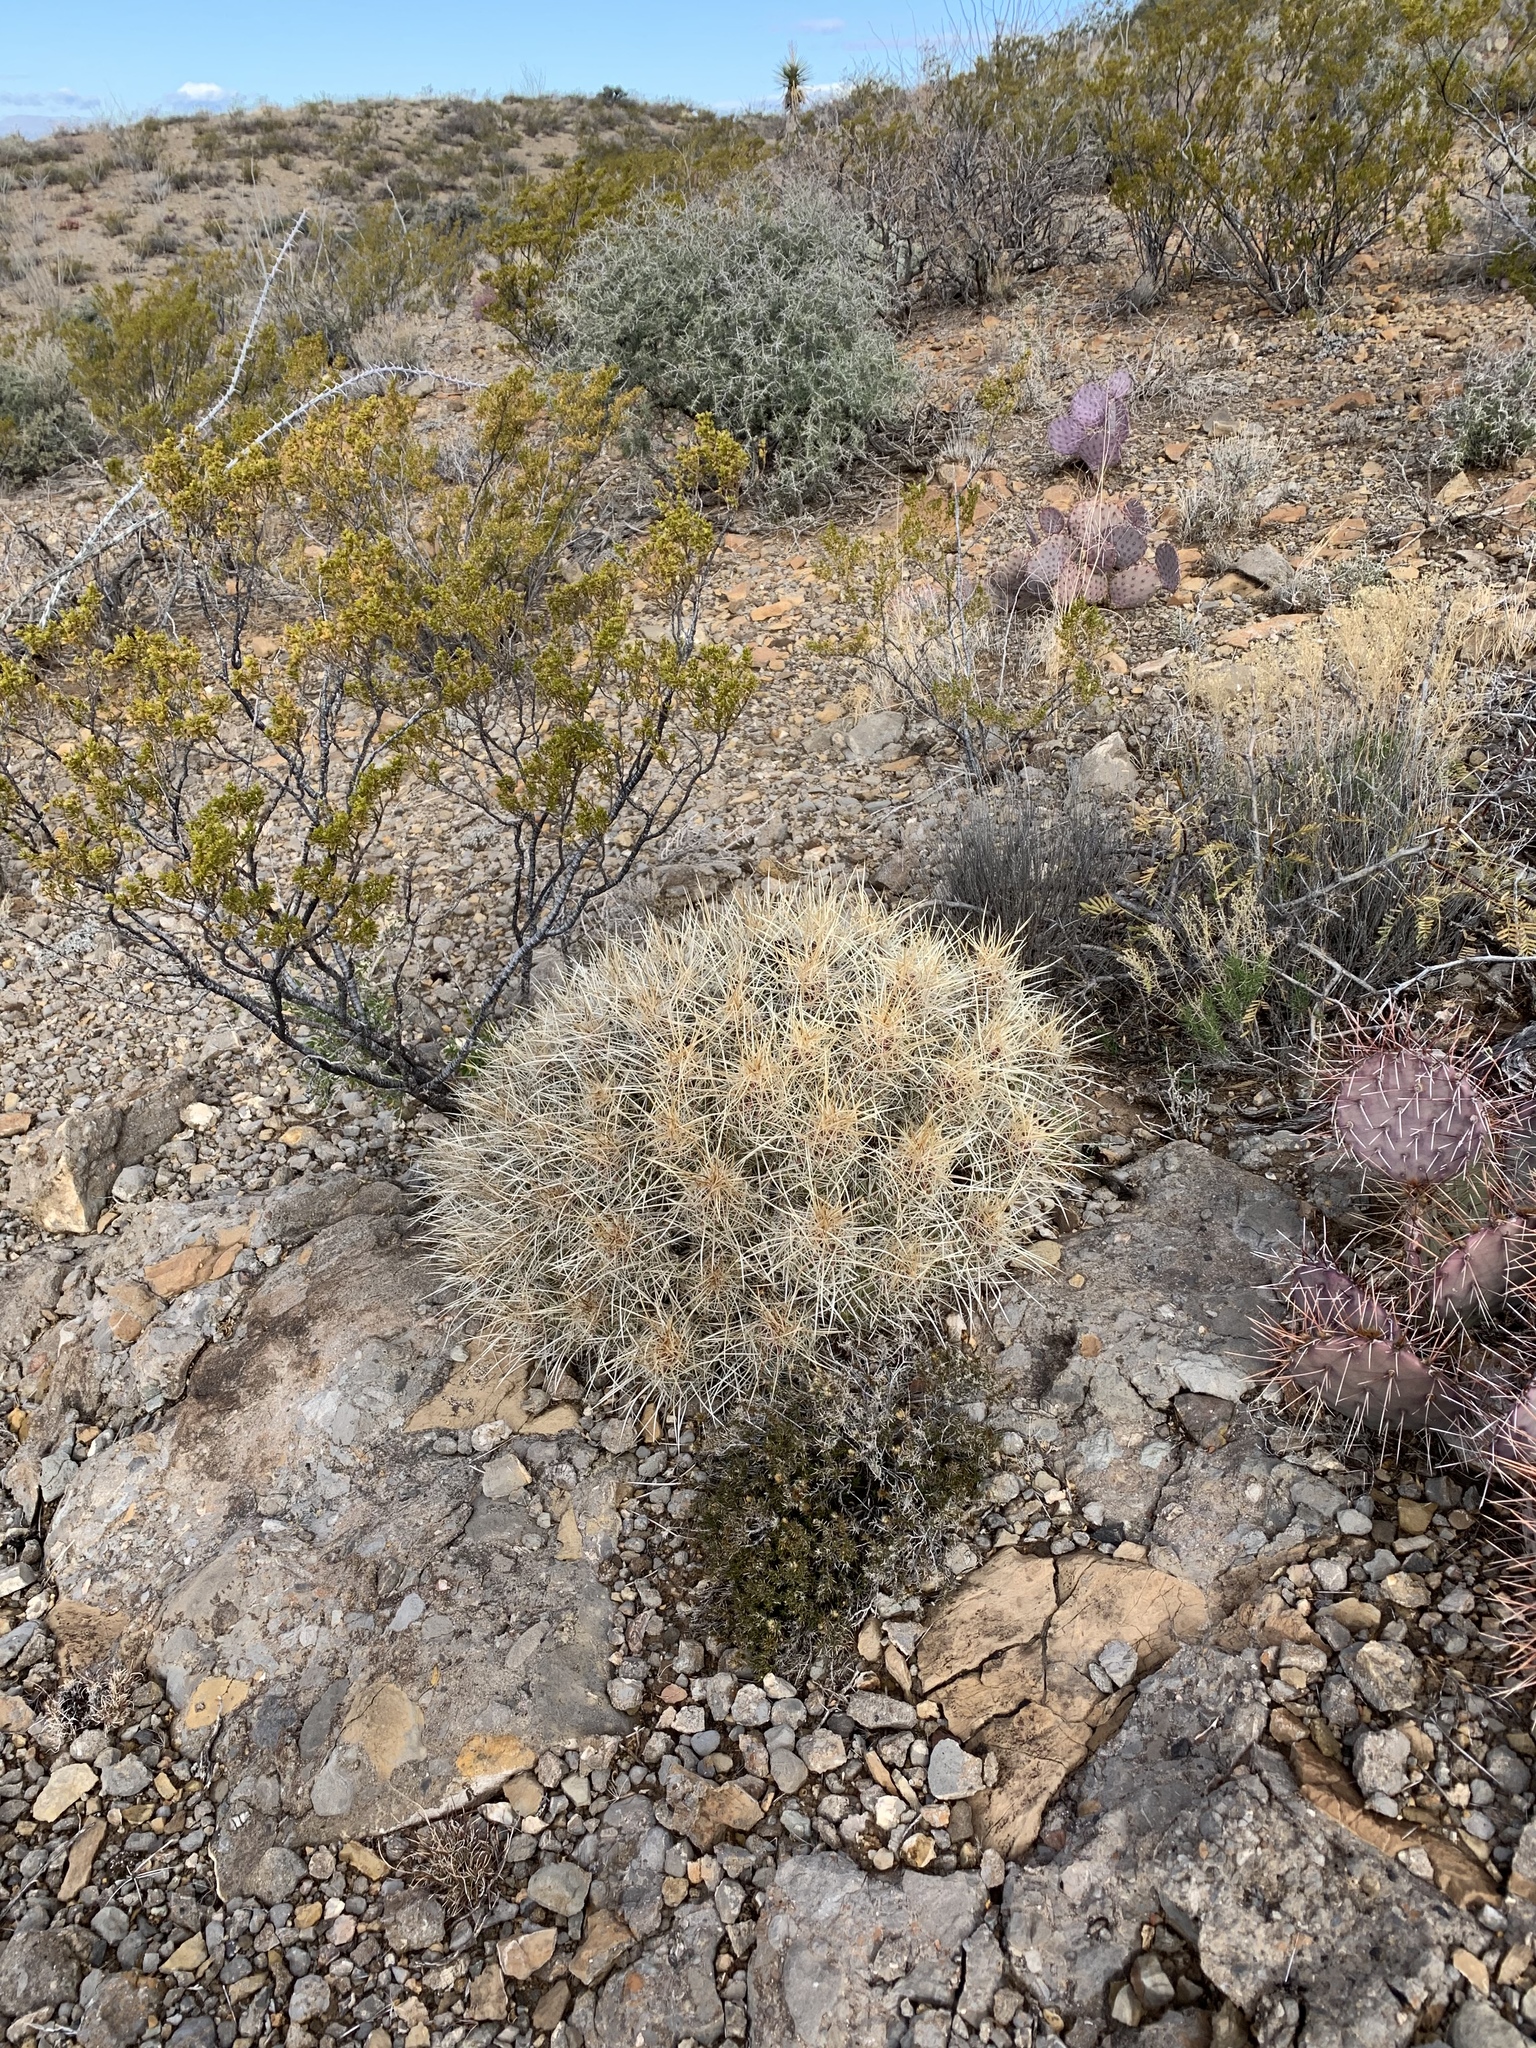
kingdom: Plantae
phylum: Tracheophyta
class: Magnoliopsida
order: Caryophyllales
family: Cactaceae
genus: Echinocereus
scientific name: Echinocereus stramineus
